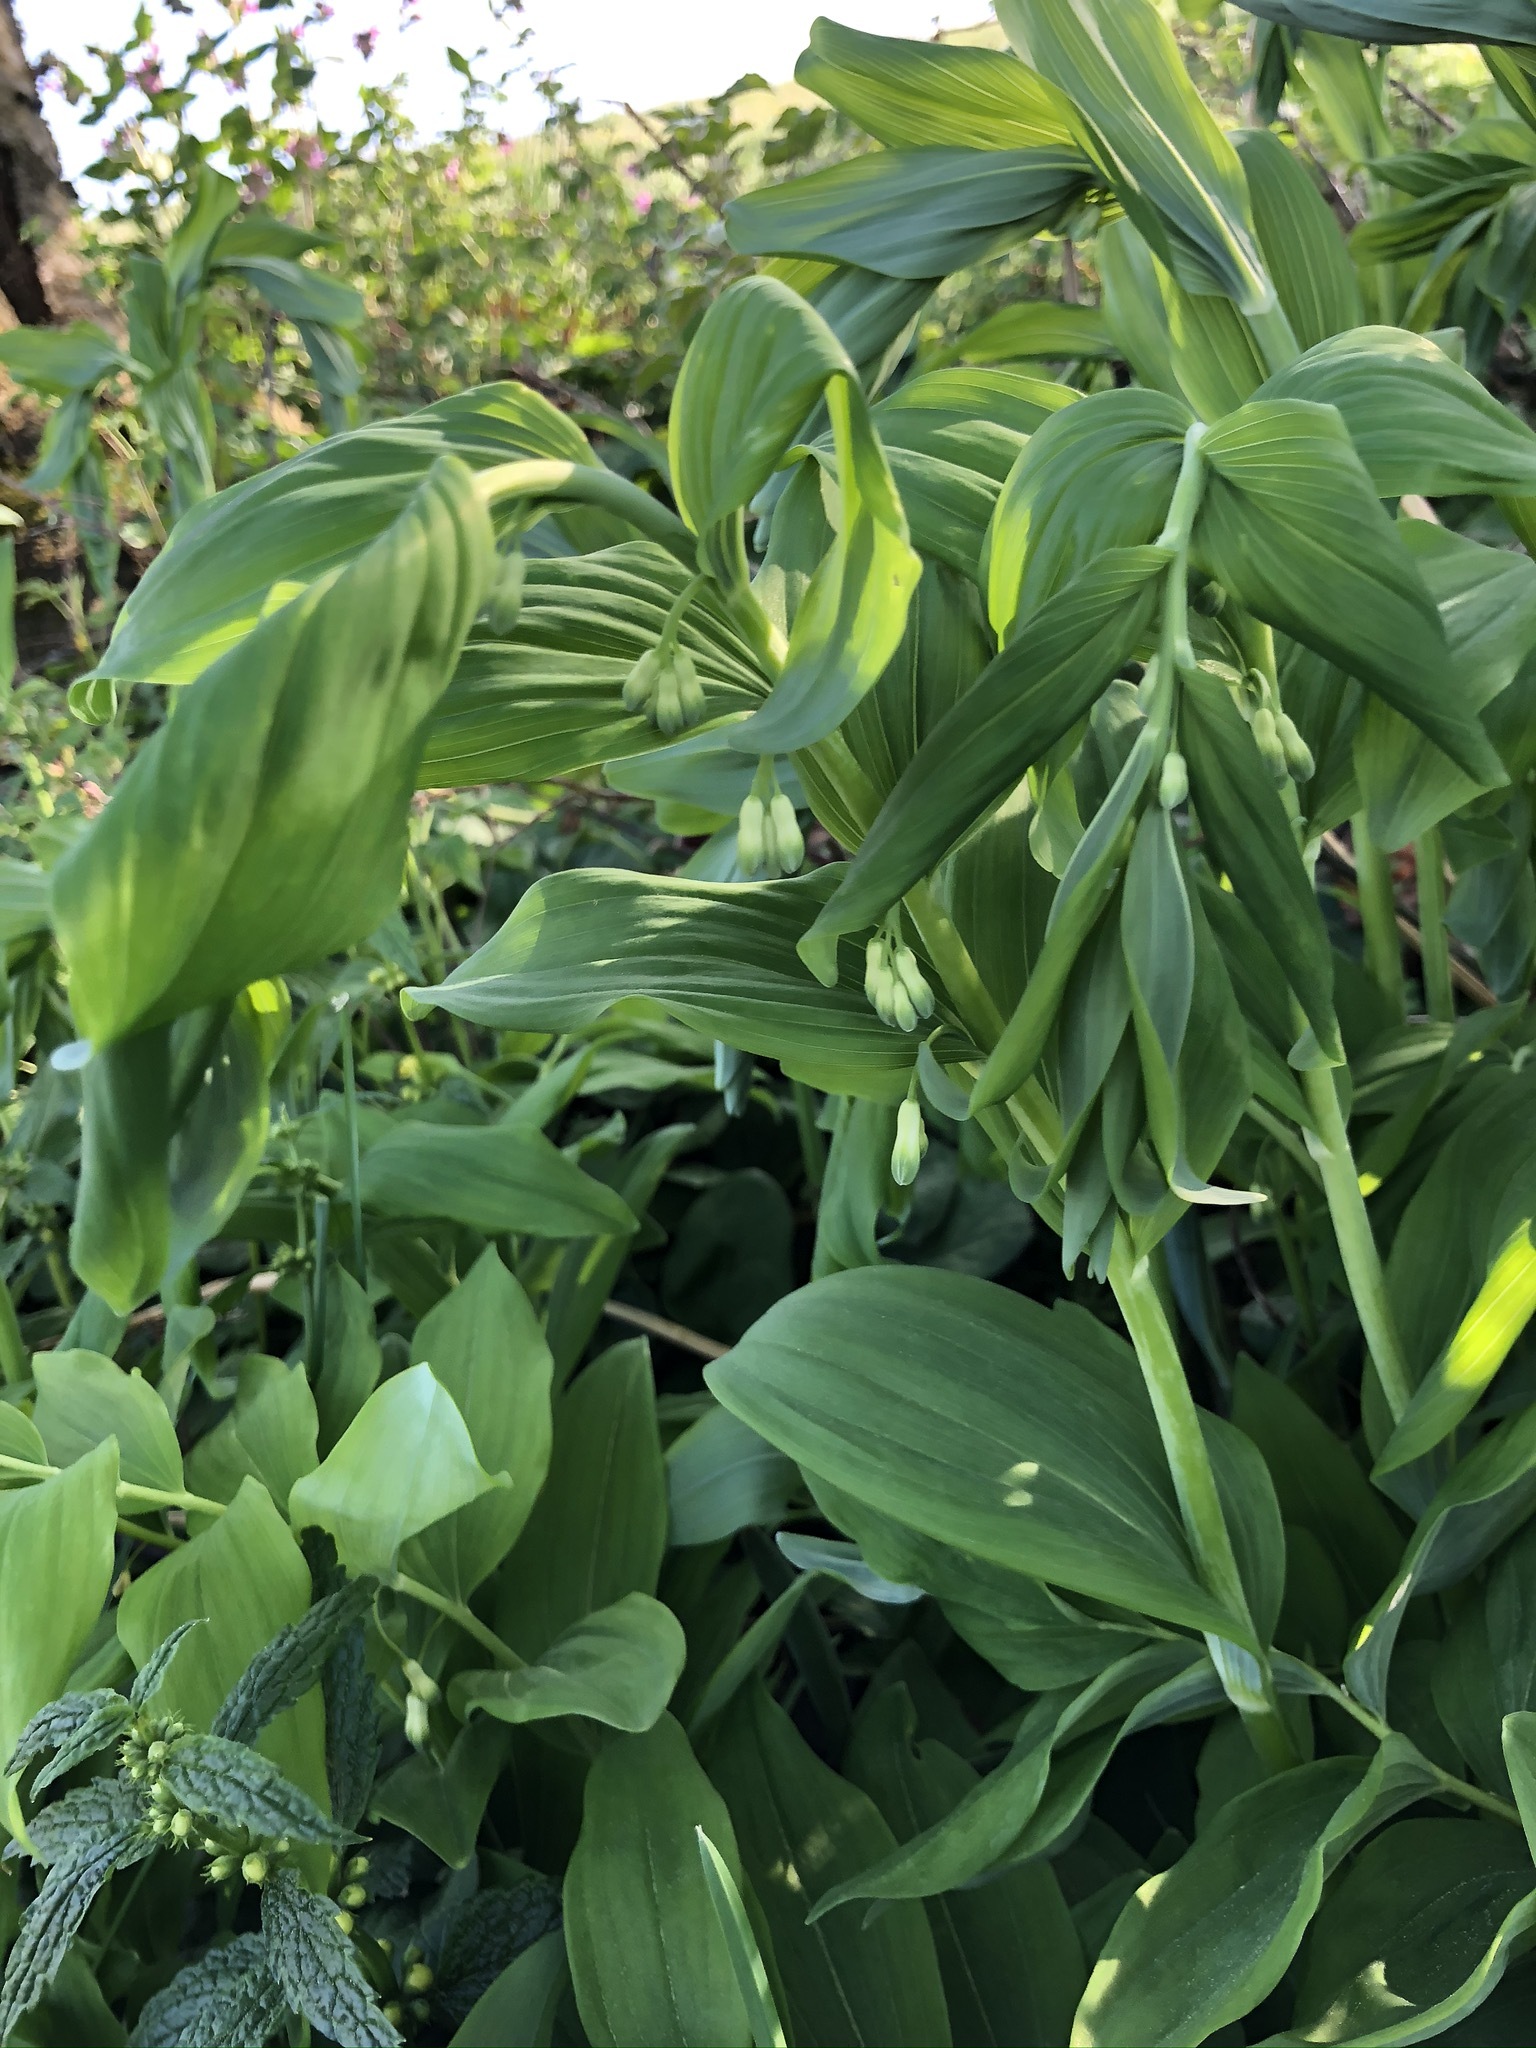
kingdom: Plantae
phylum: Tracheophyta
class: Liliopsida
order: Asparagales
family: Asparagaceae
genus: Polygonatum
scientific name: Polygonatum multiflorum
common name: Solomon's-seal
